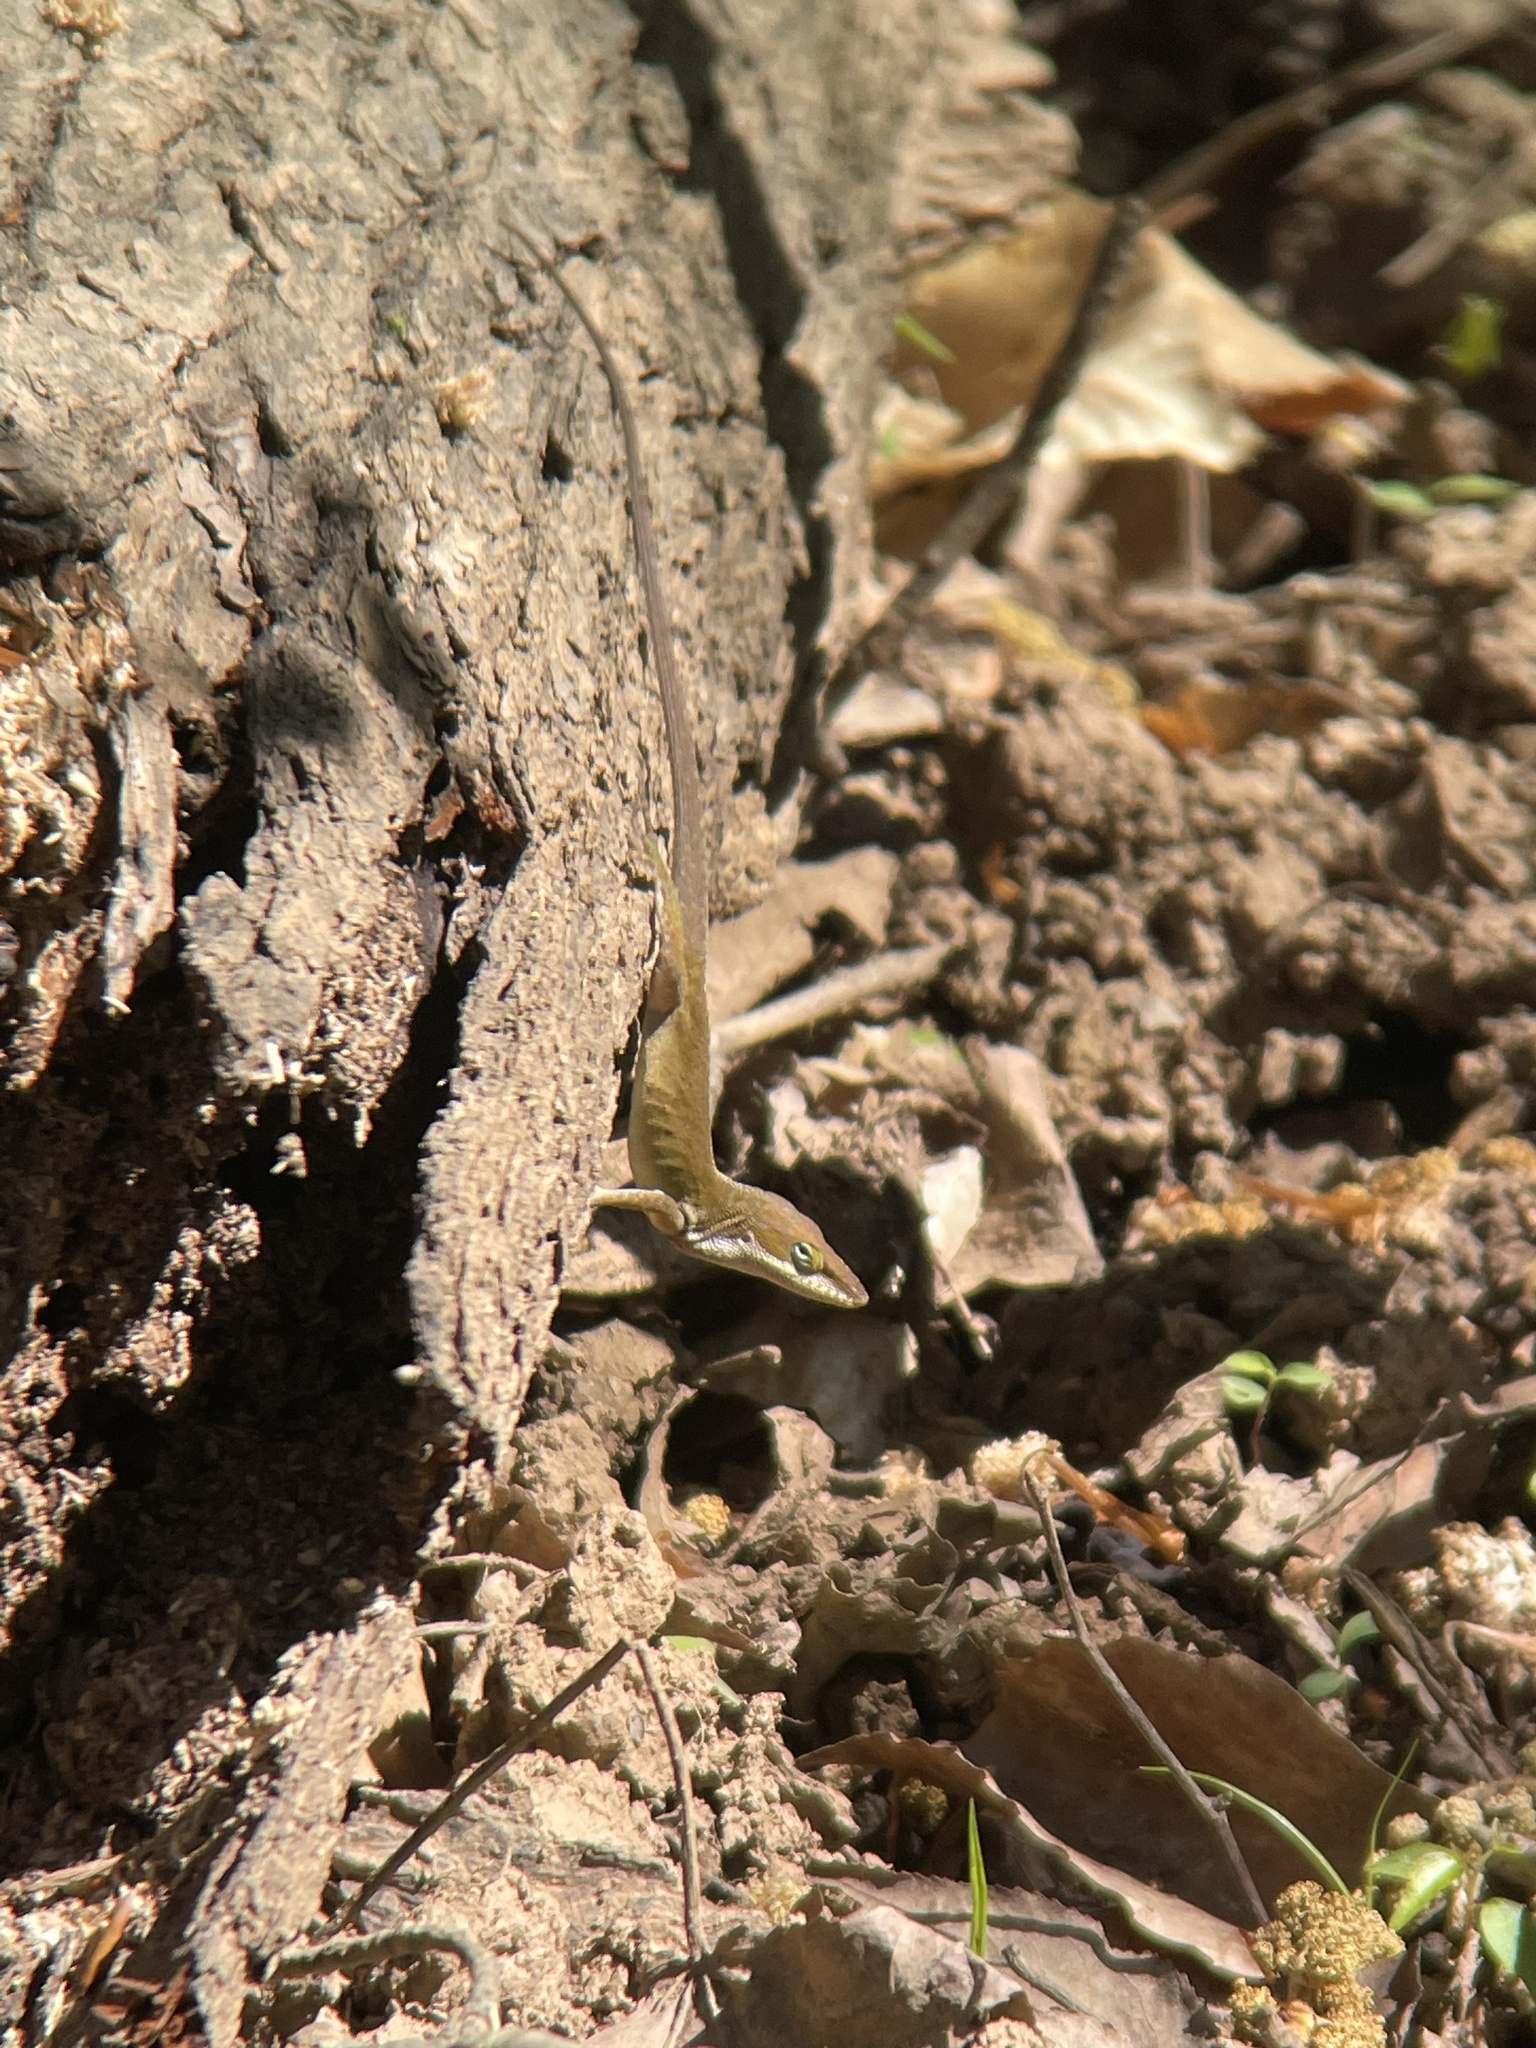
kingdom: Animalia
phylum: Chordata
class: Squamata
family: Dactyloidae
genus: Anolis
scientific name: Anolis carolinensis
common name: Green anole
